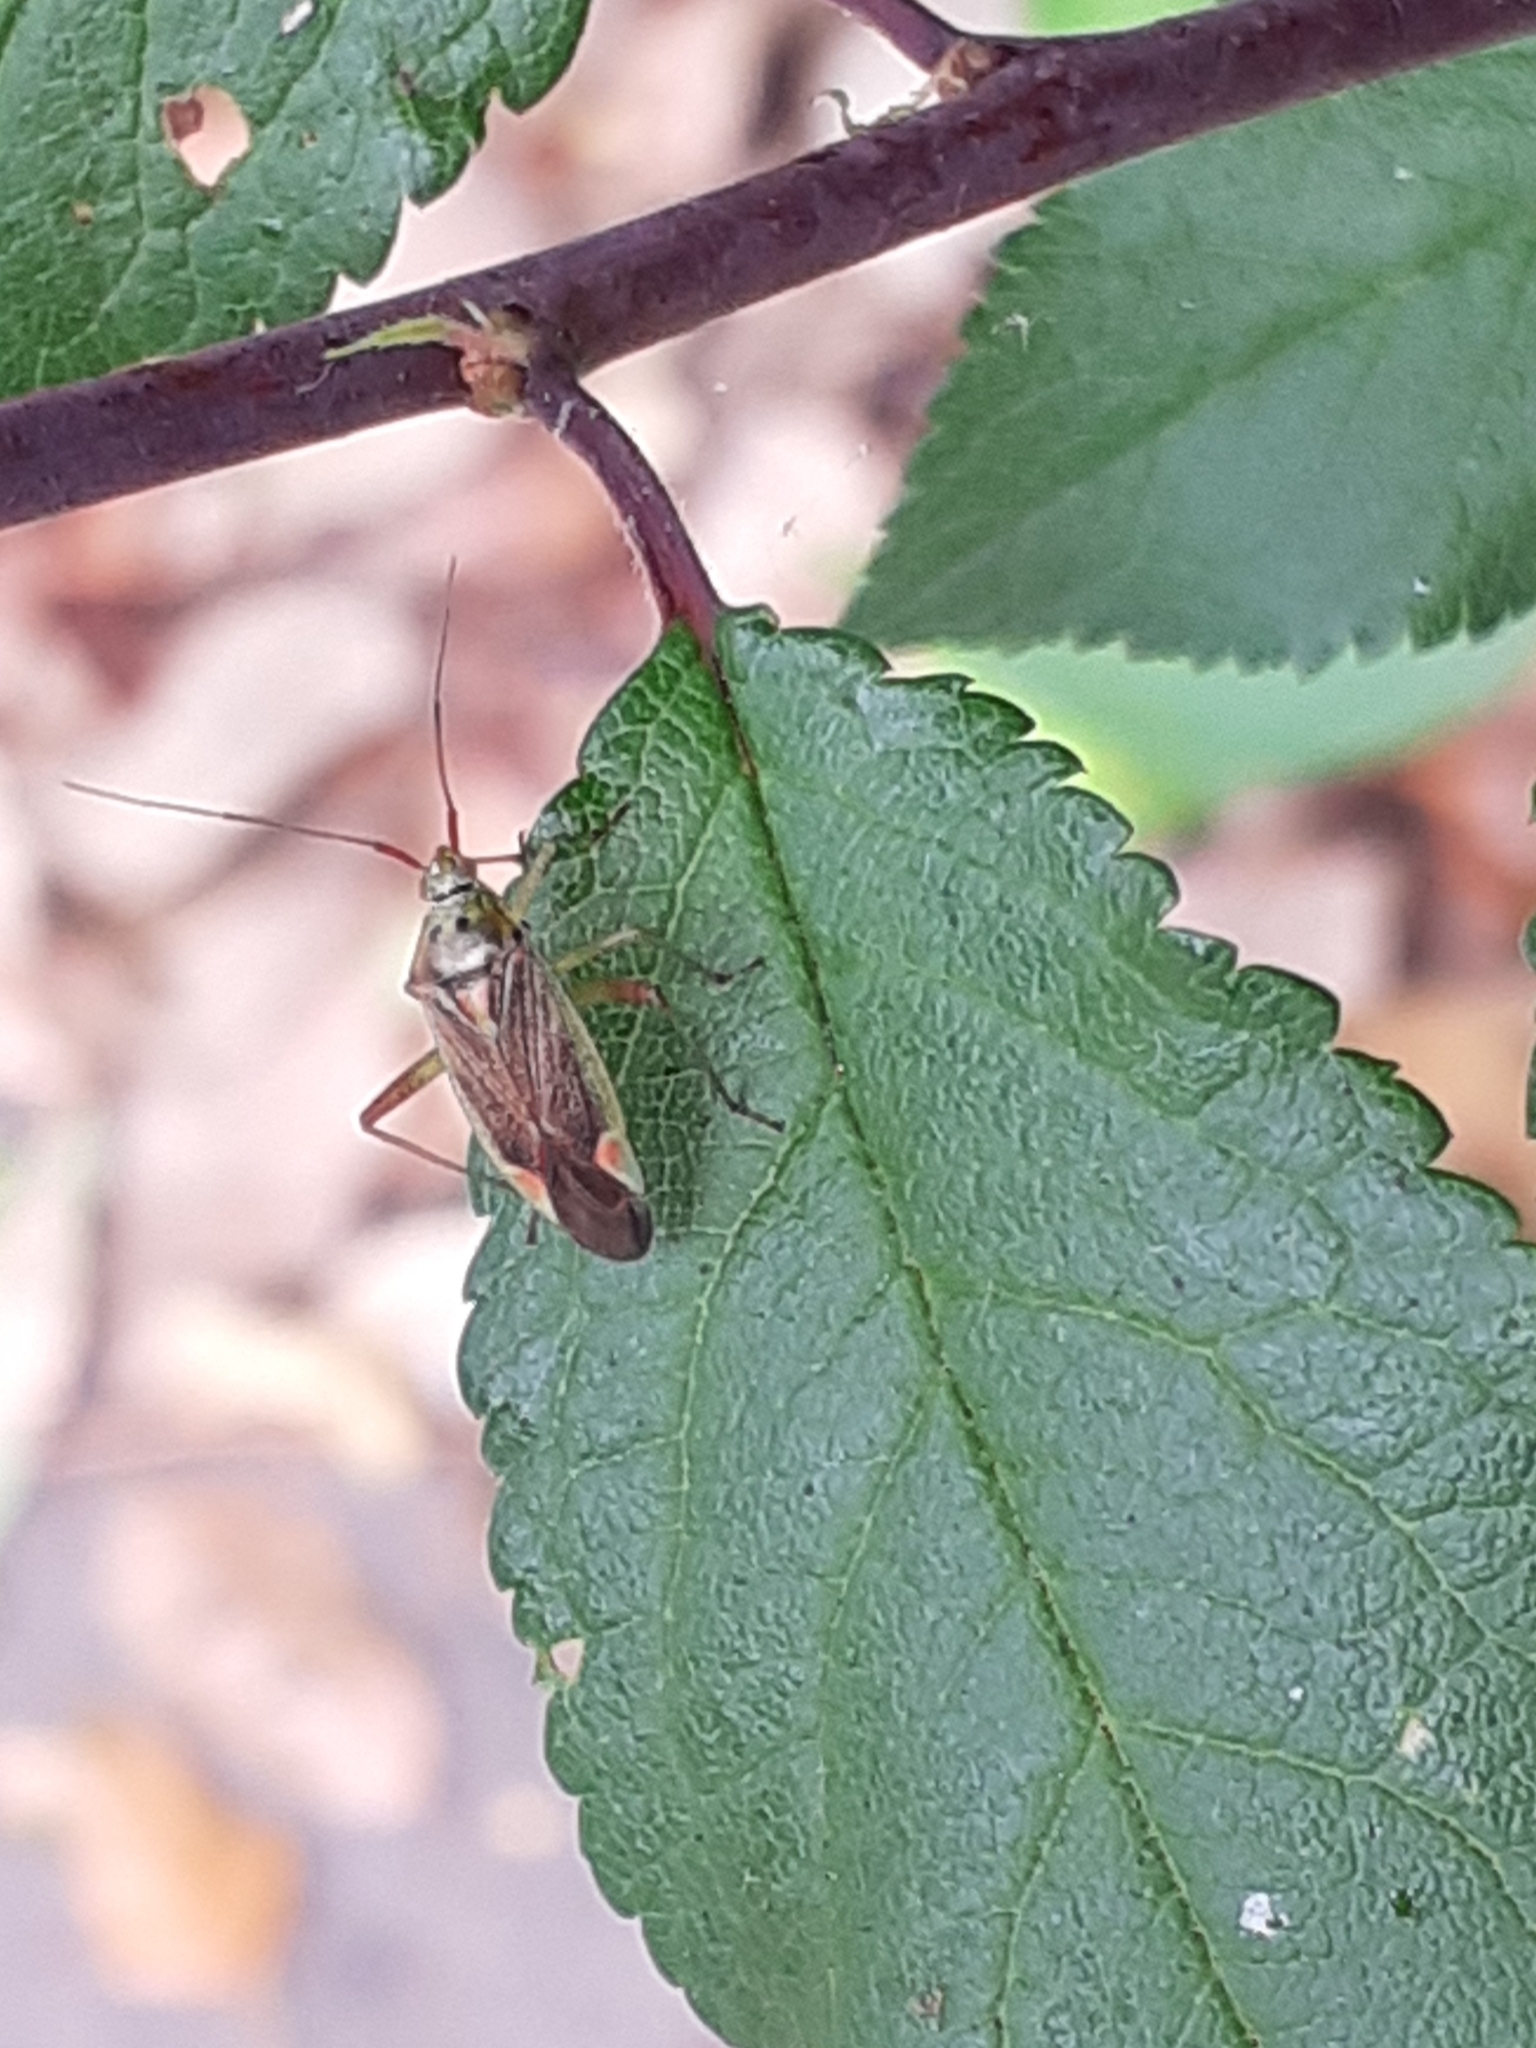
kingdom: Animalia
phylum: Arthropoda
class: Insecta
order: Hemiptera
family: Miridae
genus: Closterotomus
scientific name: Closterotomus trivialis
